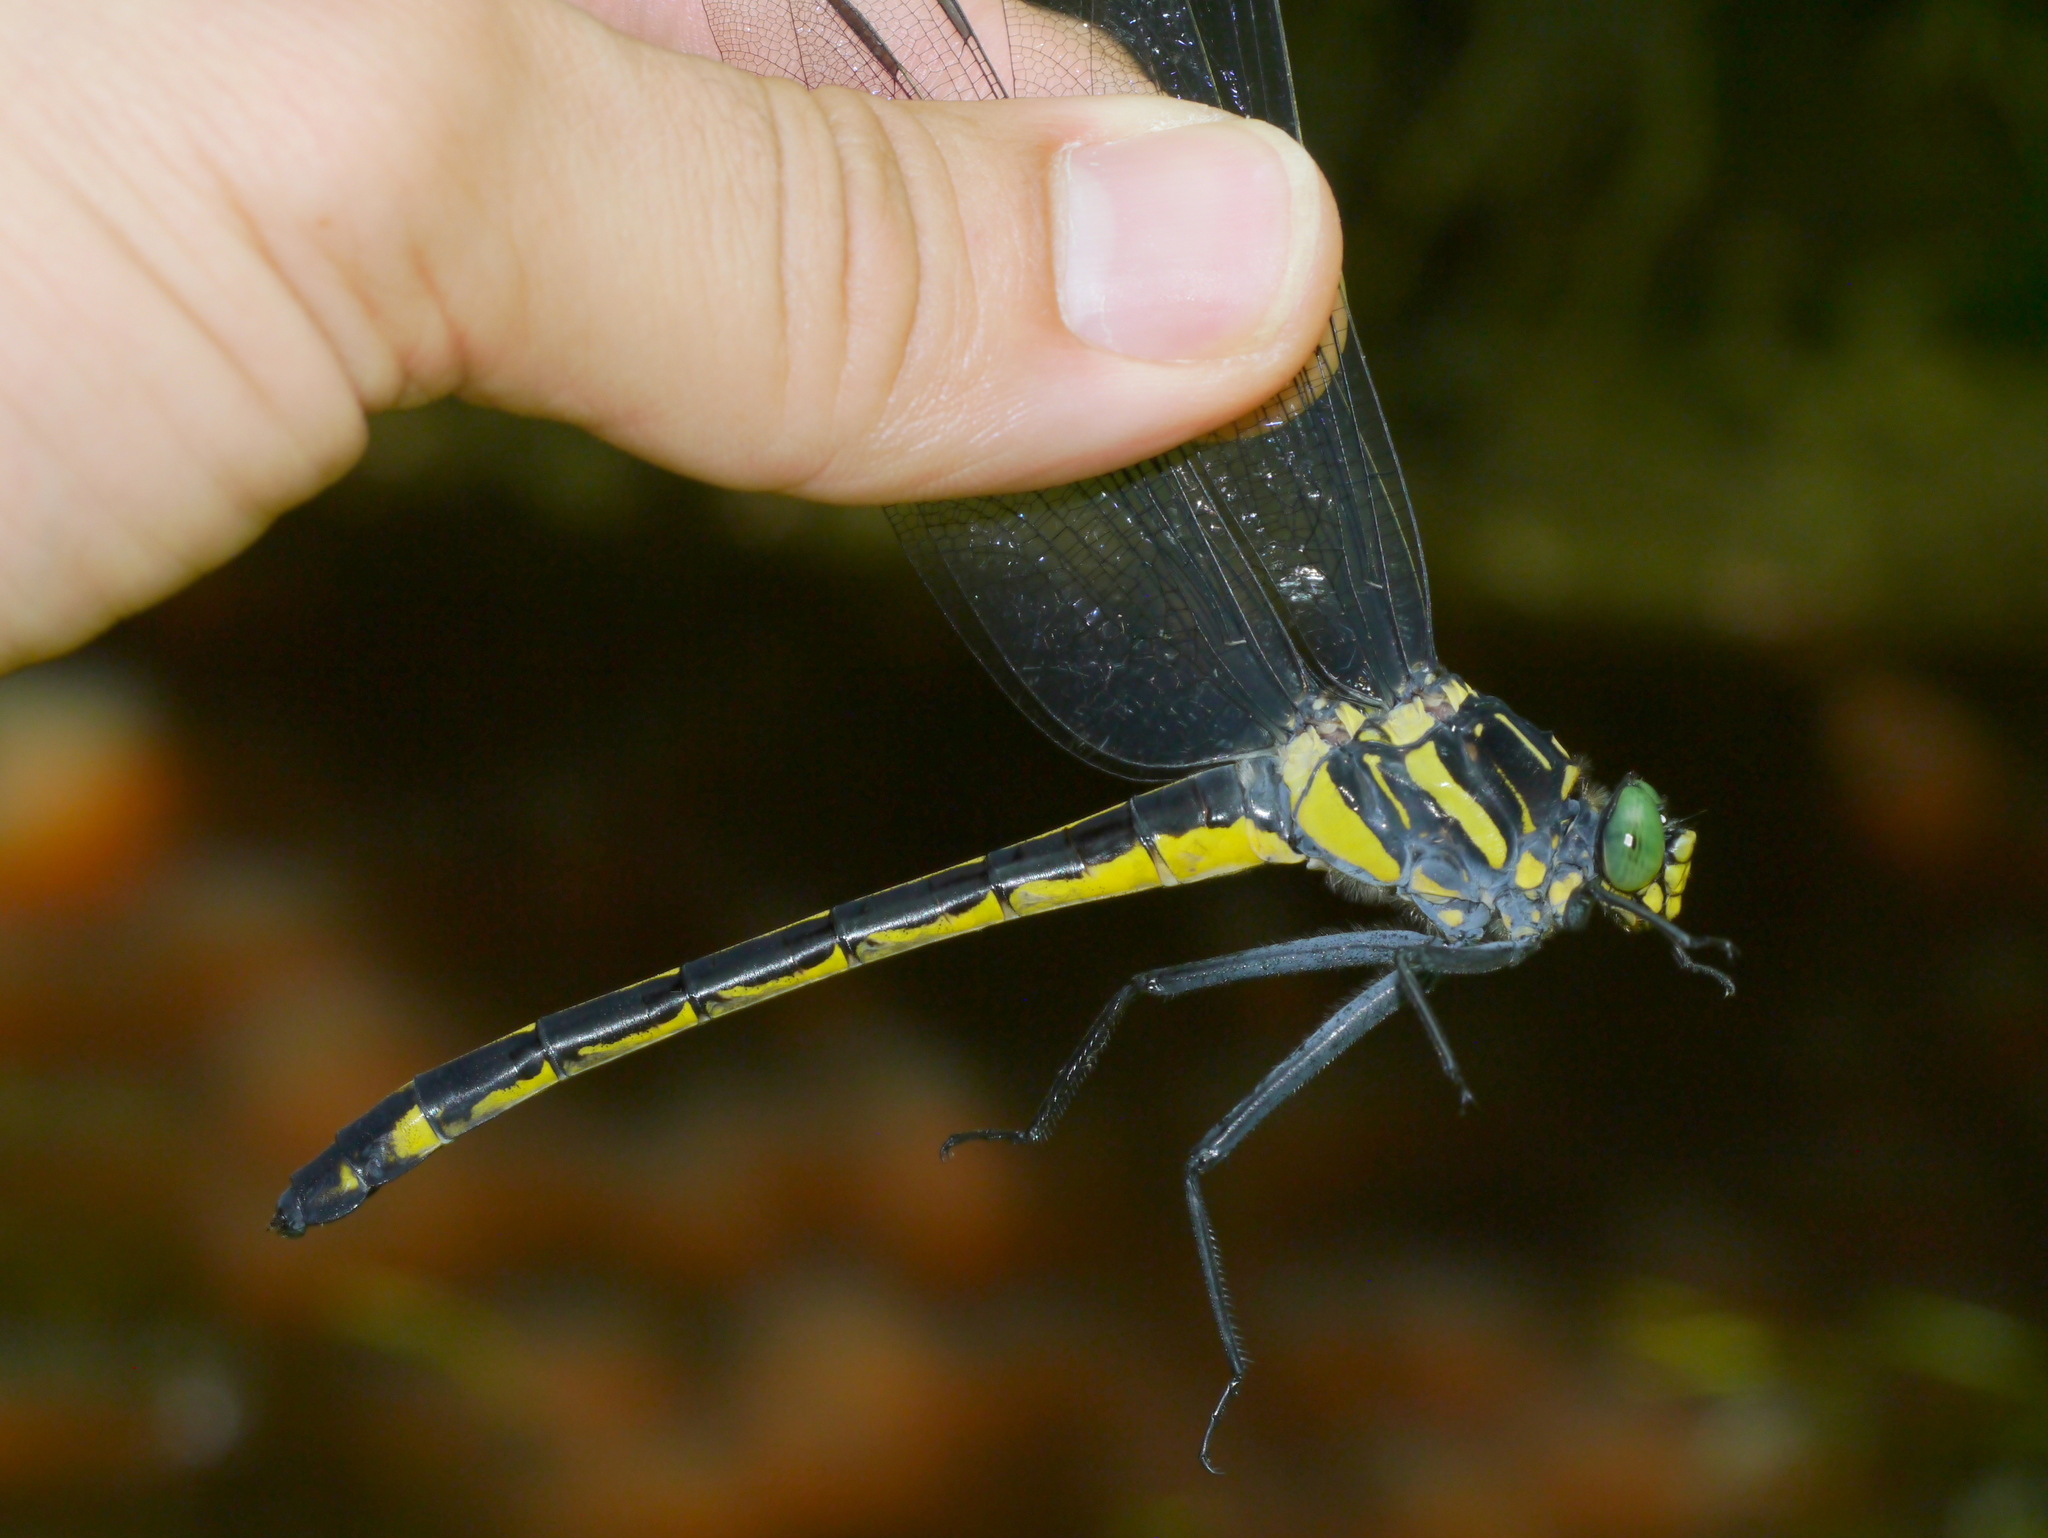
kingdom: Animalia
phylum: Arthropoda
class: Insecta
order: Odonata
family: Gomphidae
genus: Hagenius
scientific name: Hagenius brevistylus
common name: Dragonhunter
